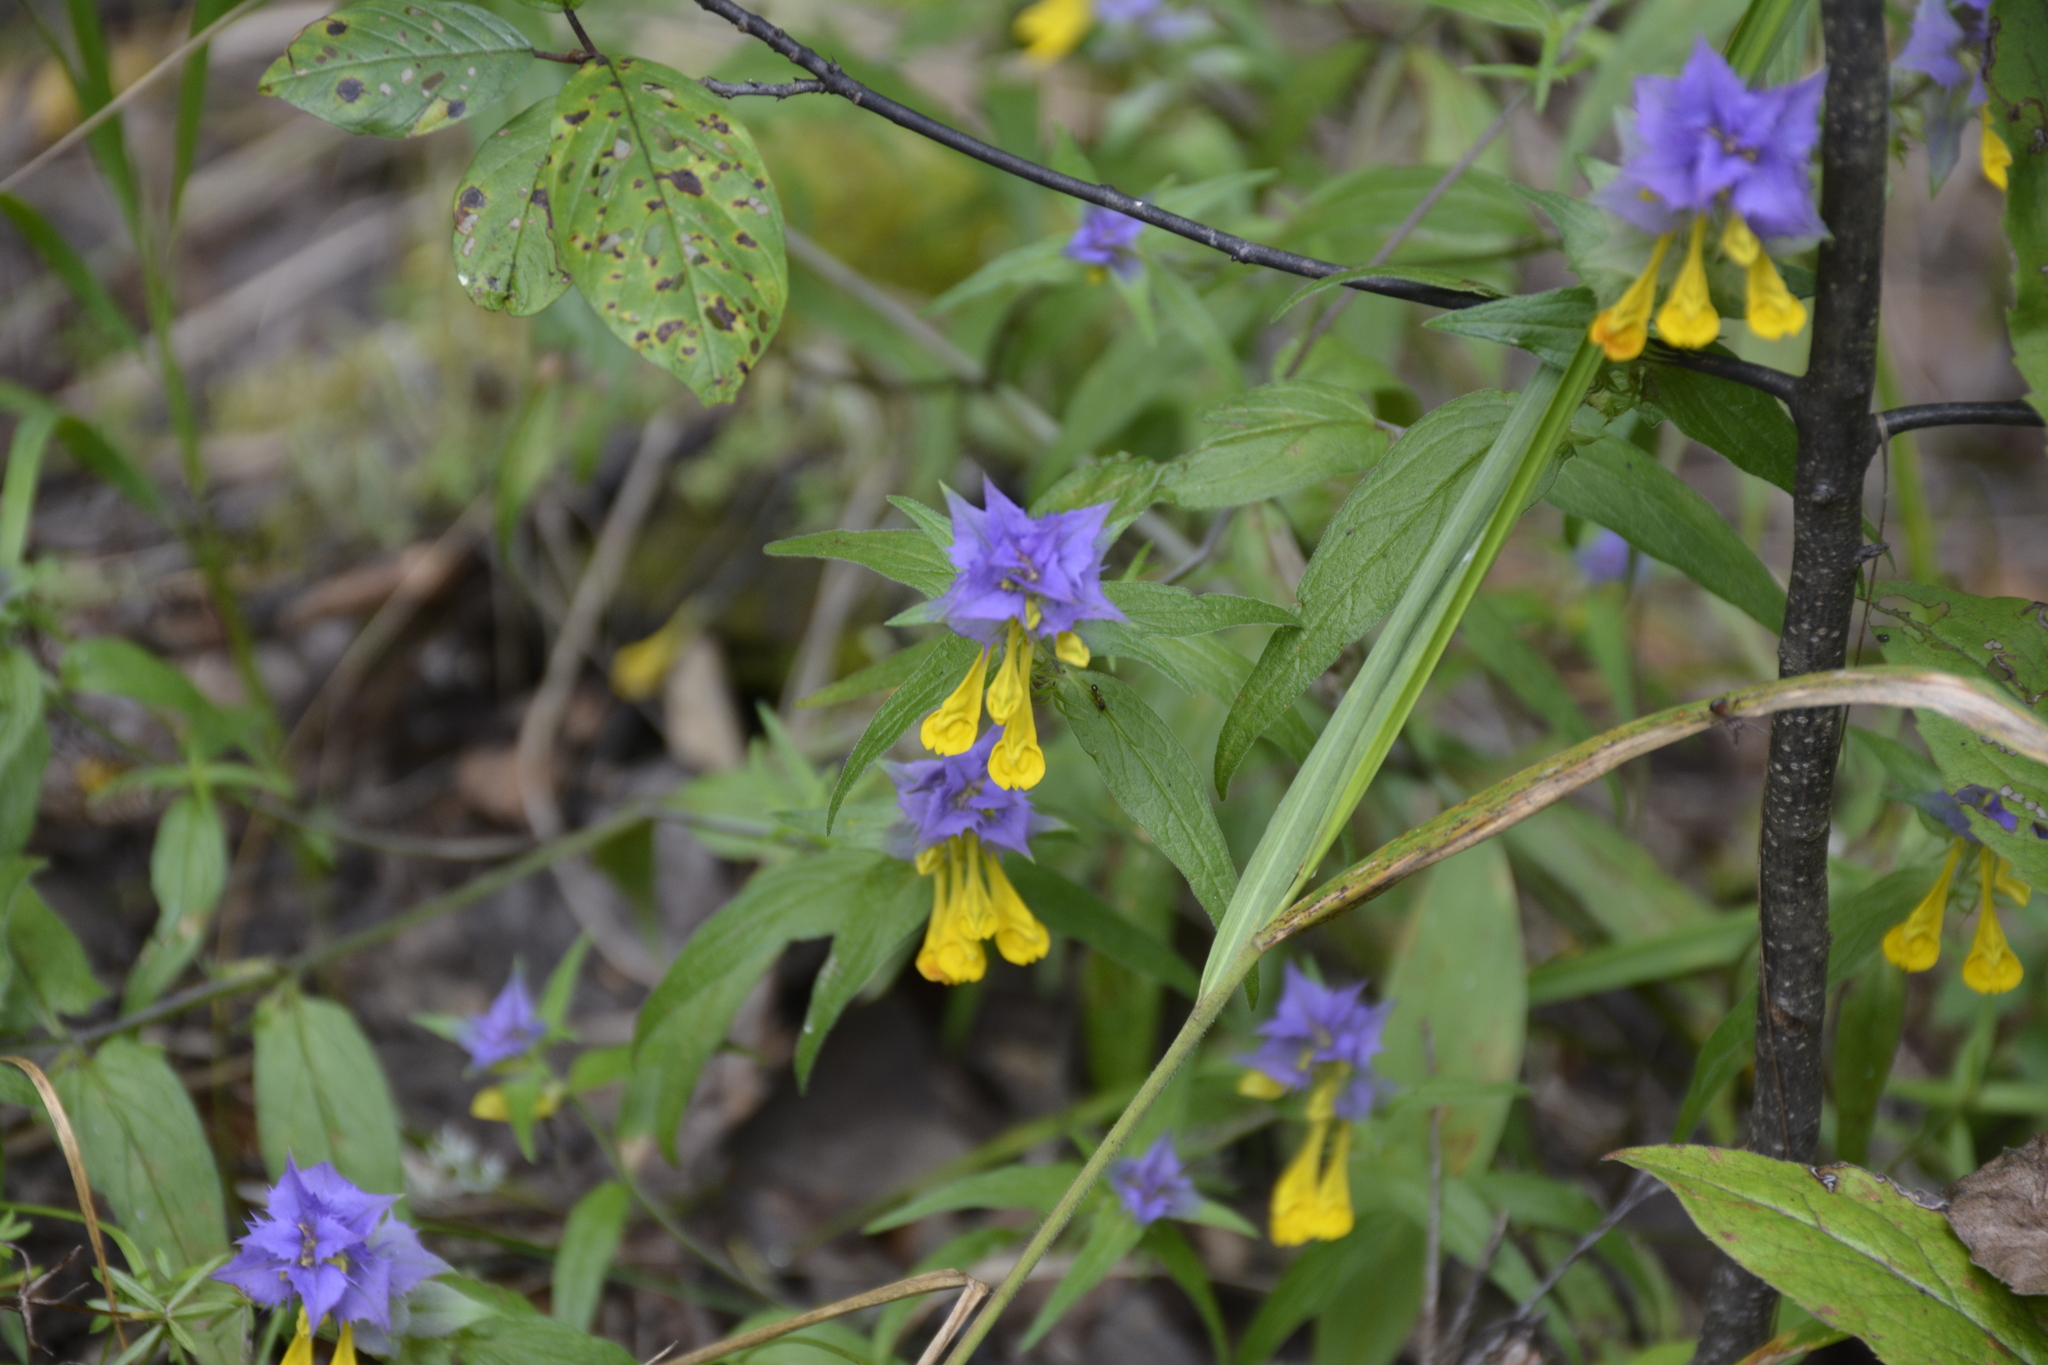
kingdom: Plantae
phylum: Tracheophyta
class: Magnoliopsida
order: Lamiales
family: Orobanchaceae
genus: Melampyrum
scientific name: Melampyrum nemorosum
